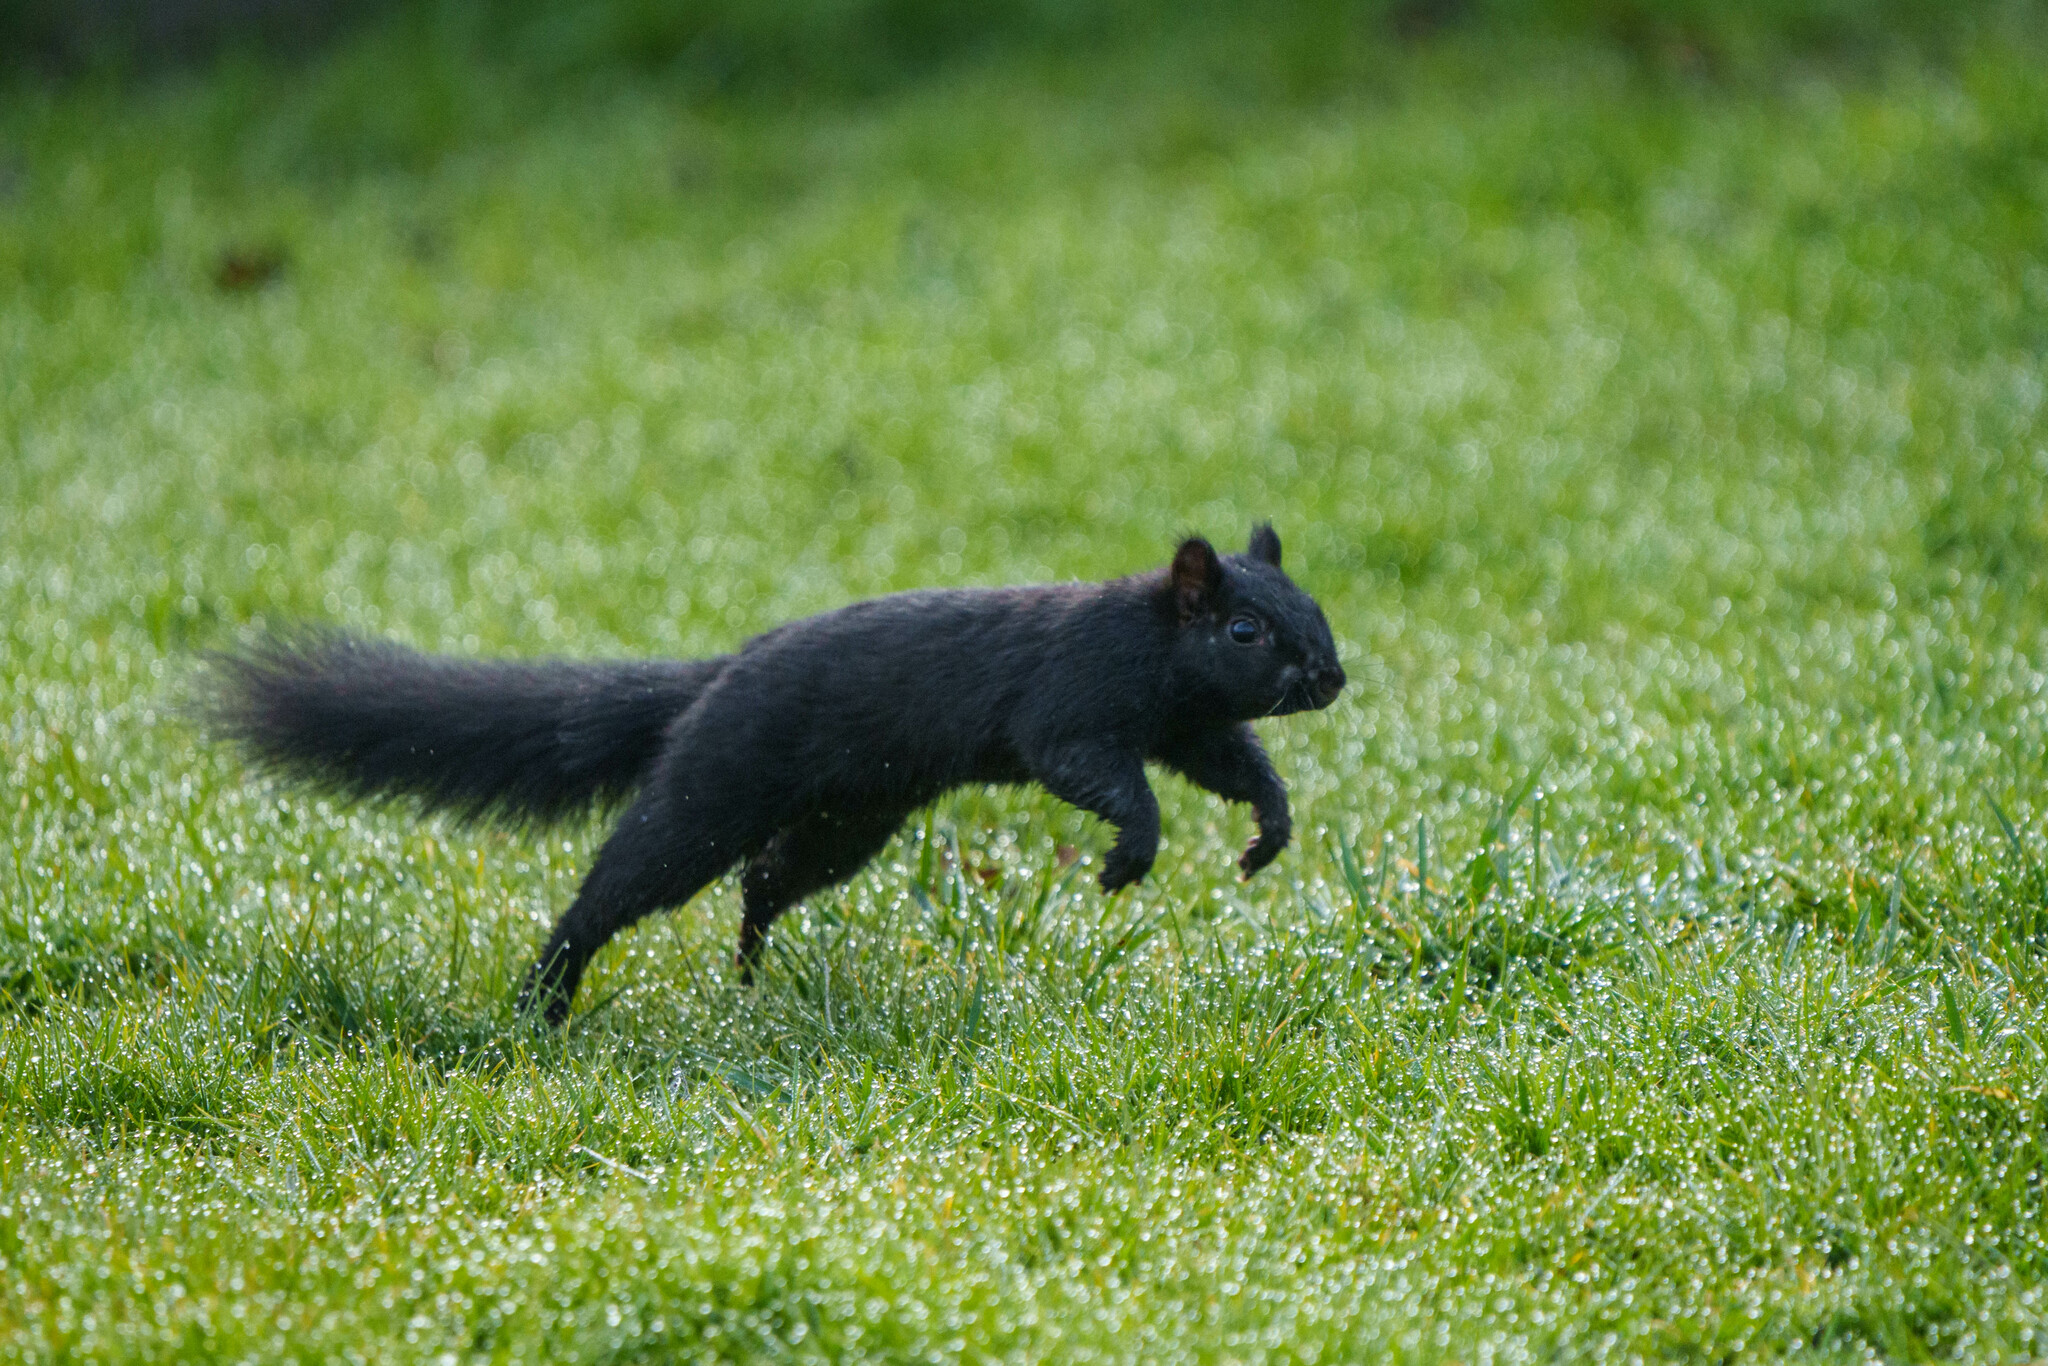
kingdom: Animalia
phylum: Chordata
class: Mammalia
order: Rodentia
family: Sciuridae
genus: Sciurus
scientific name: Sciurus carolinensis
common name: Eastern gray squirrel
